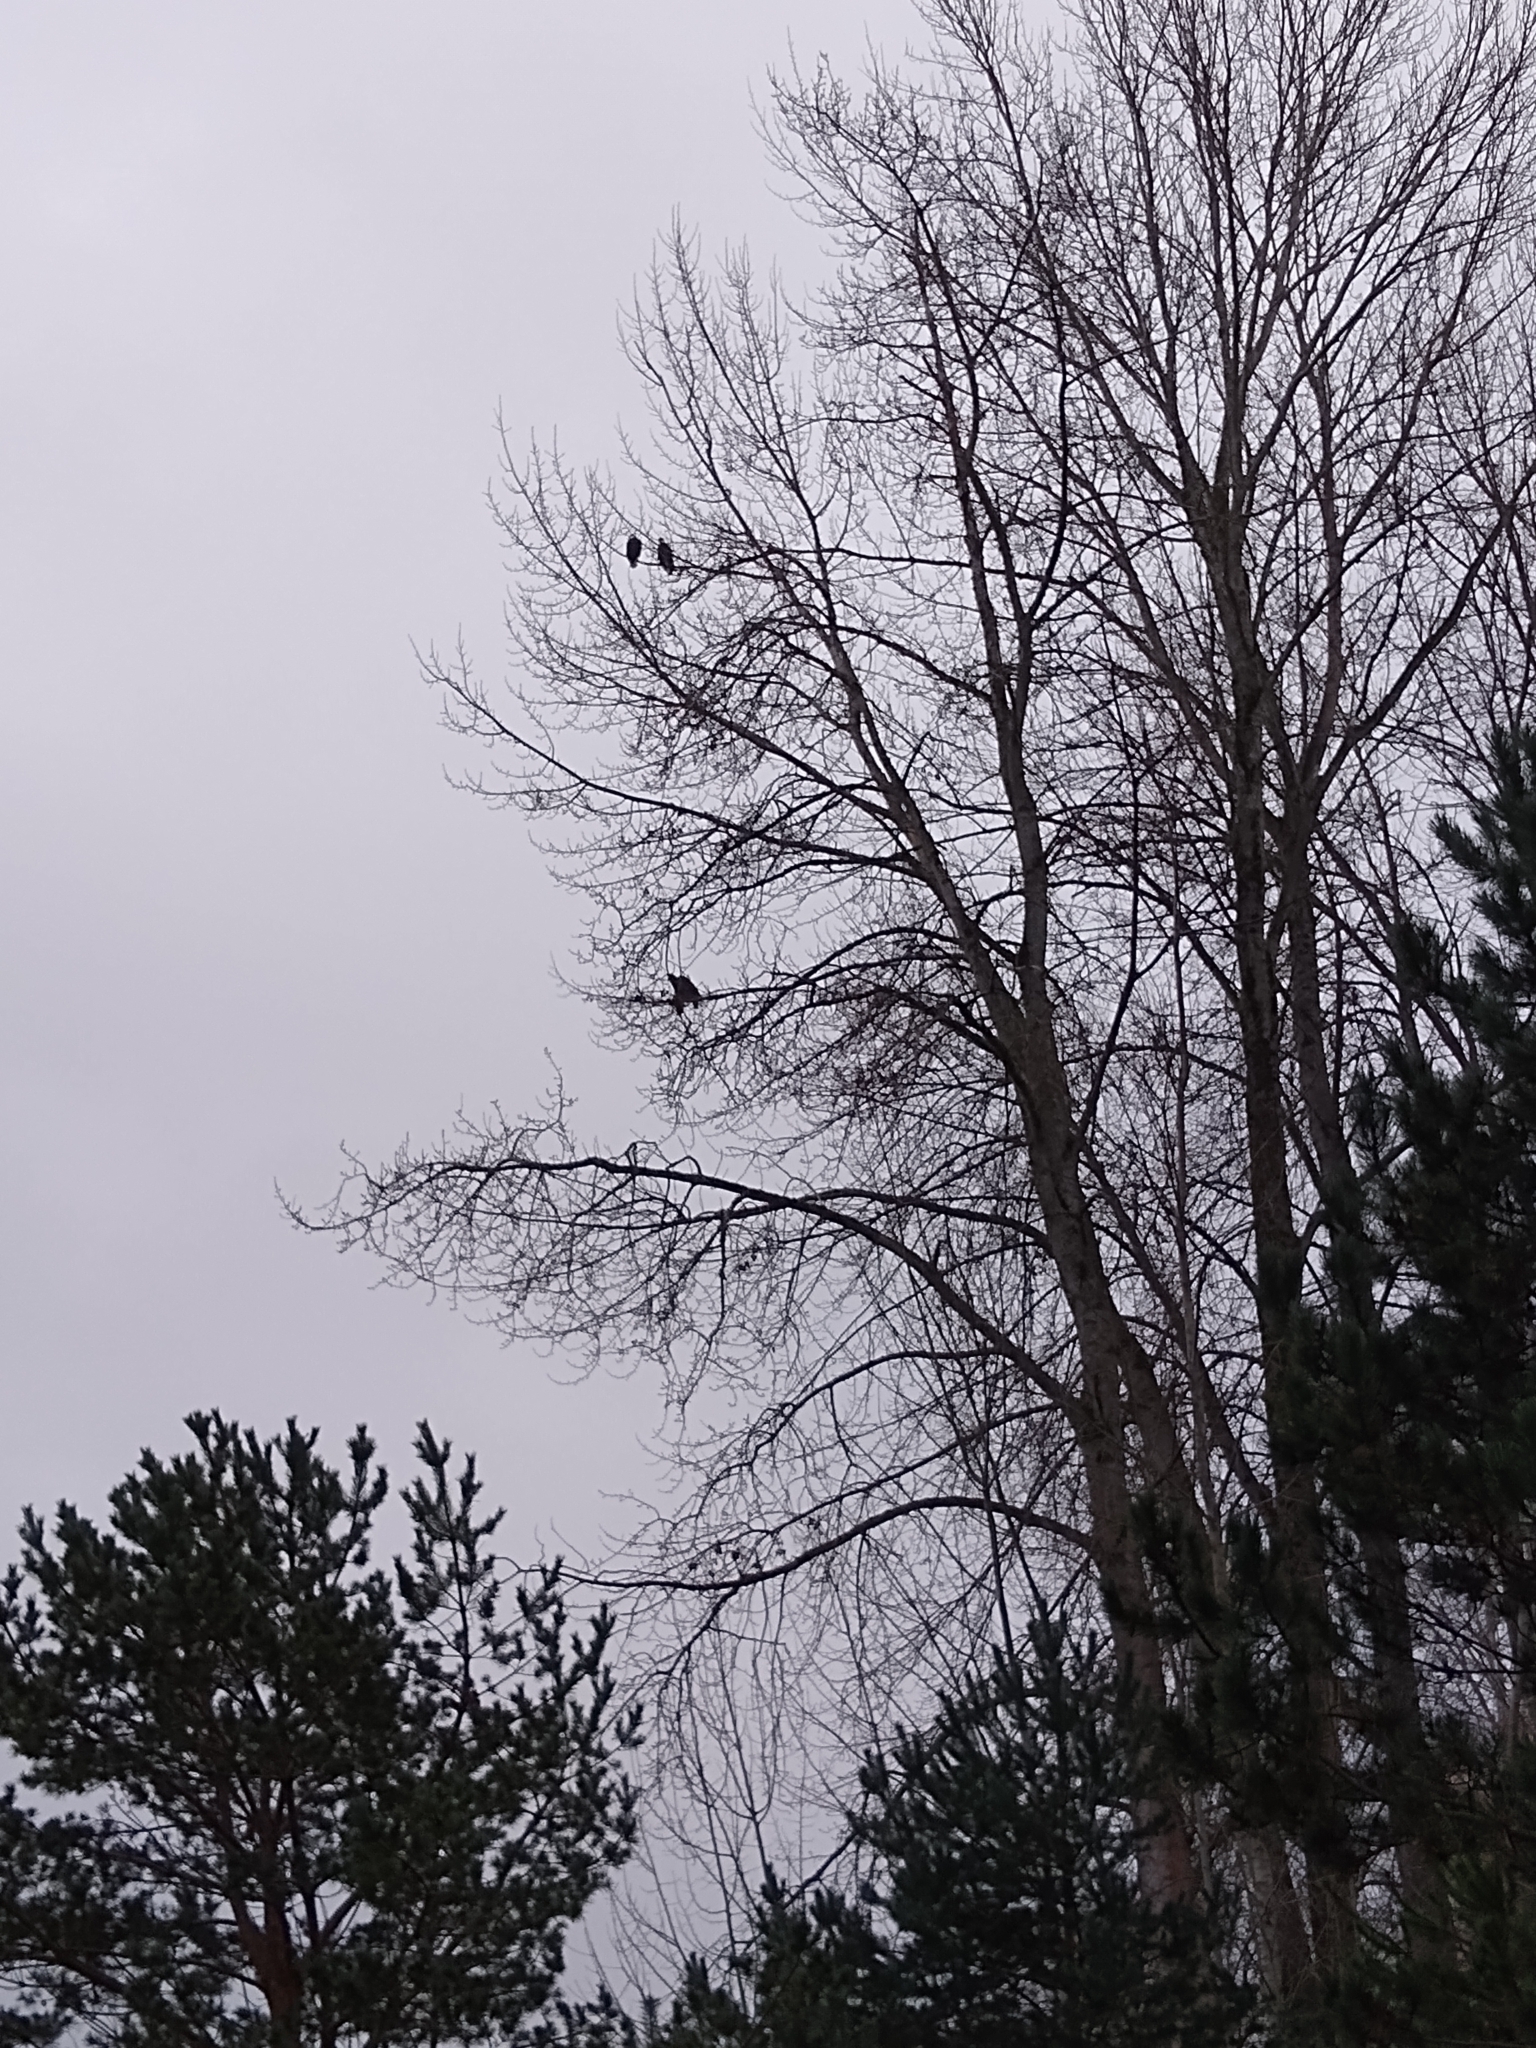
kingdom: Animalia
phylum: Chordata
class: Aves
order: Accipitriformes
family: Accipitridae
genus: Haliaeetus
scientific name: Haliaeetus leucocephalus
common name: Bald eagle
